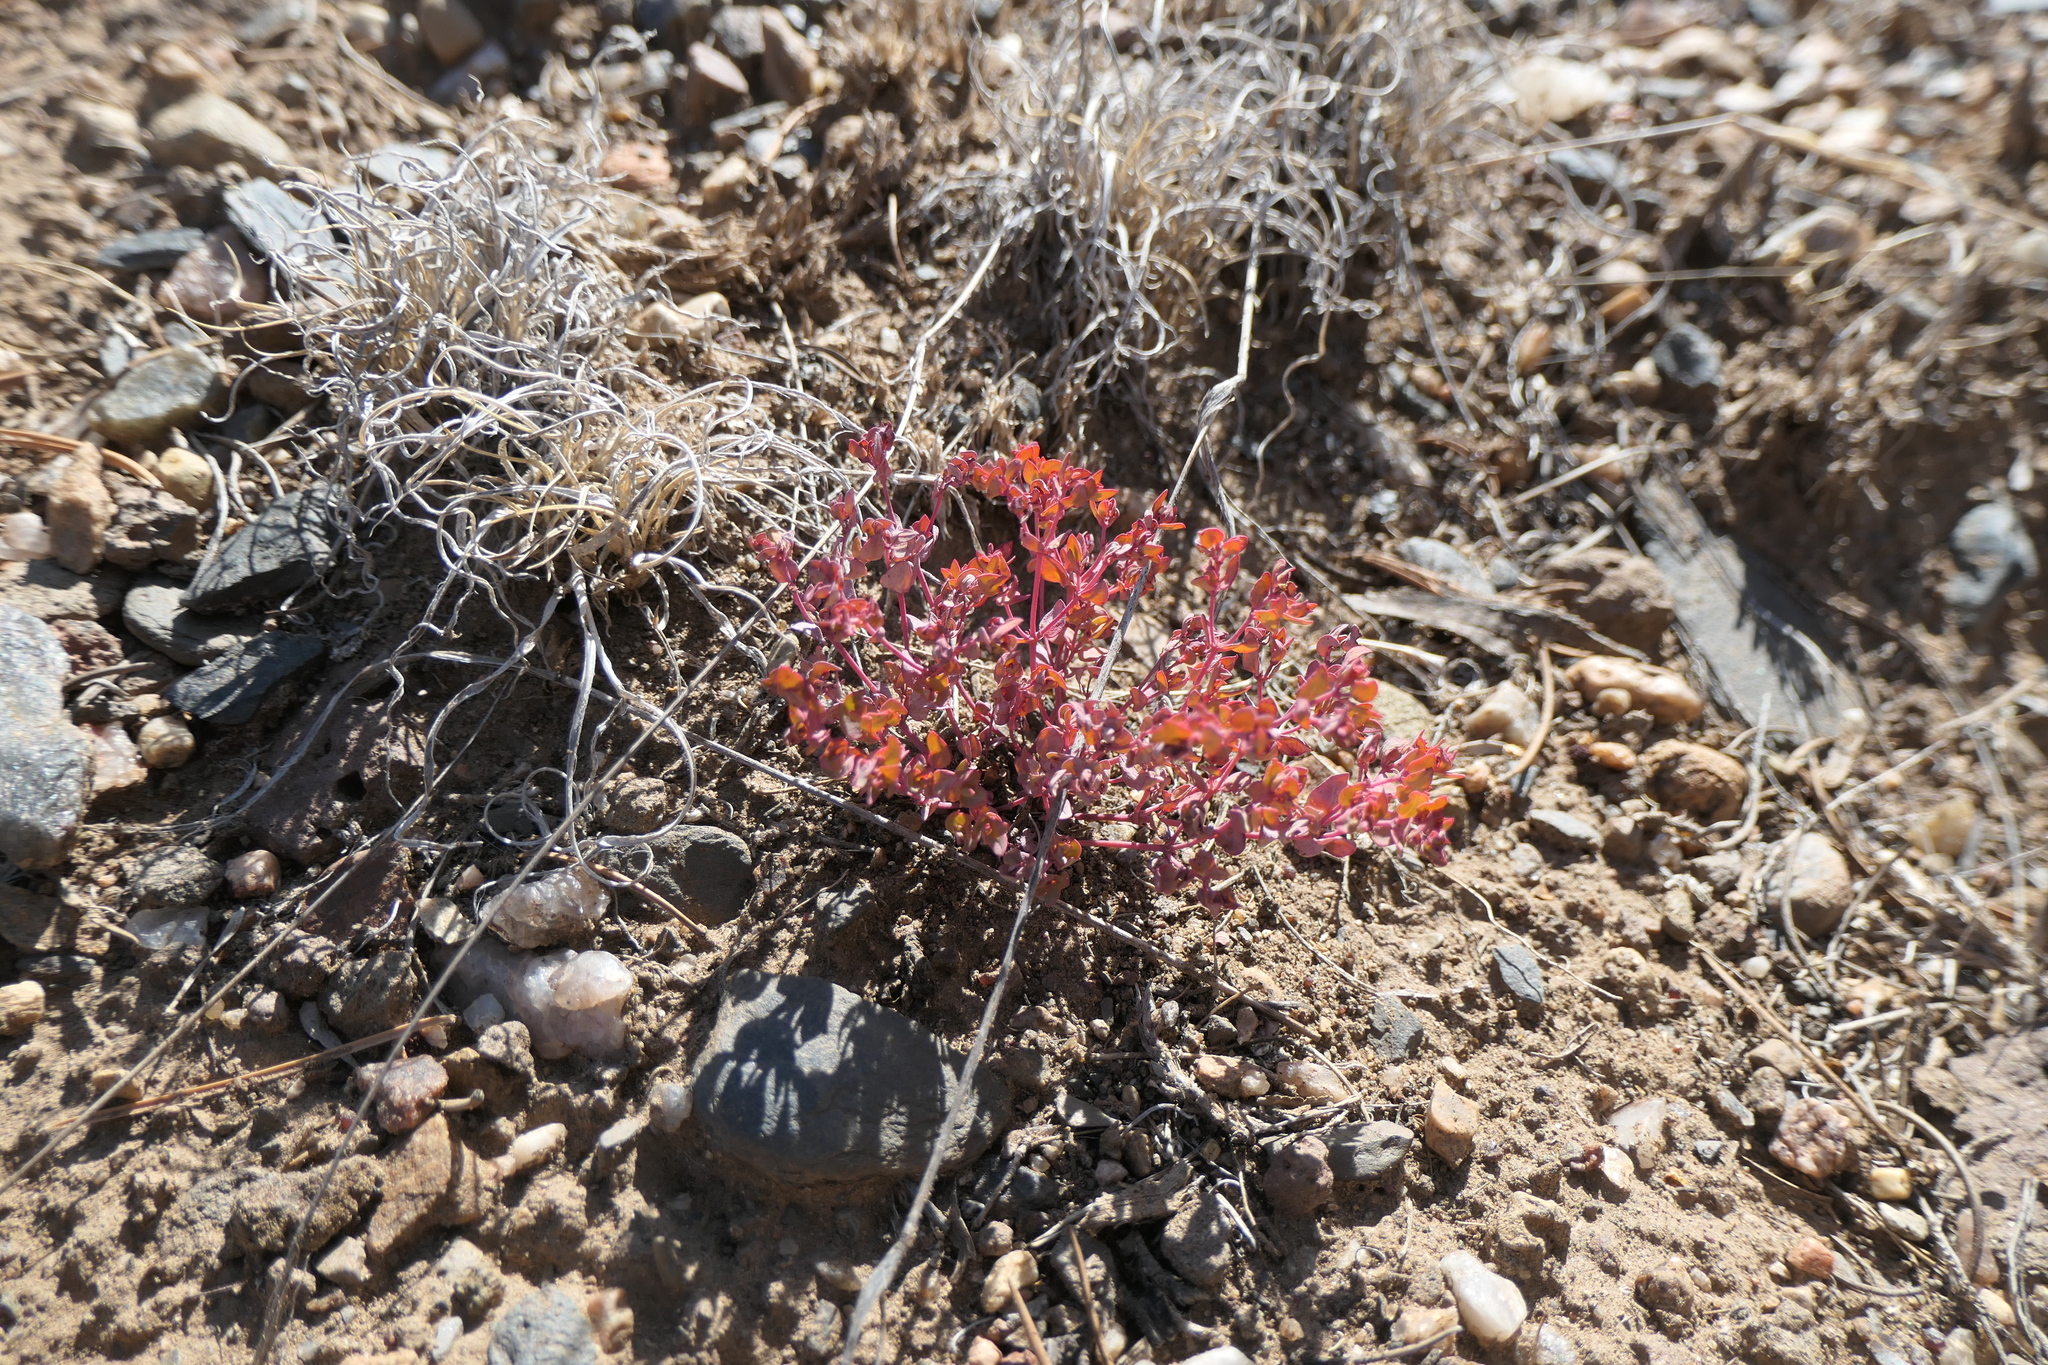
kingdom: Plantae
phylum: Tracheophyta
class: Magnoliopsida
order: Malpighiales
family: Euphorbiaceae
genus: Euphorbia
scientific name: Euphorbia fendleri
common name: Fendler's euphorbia
